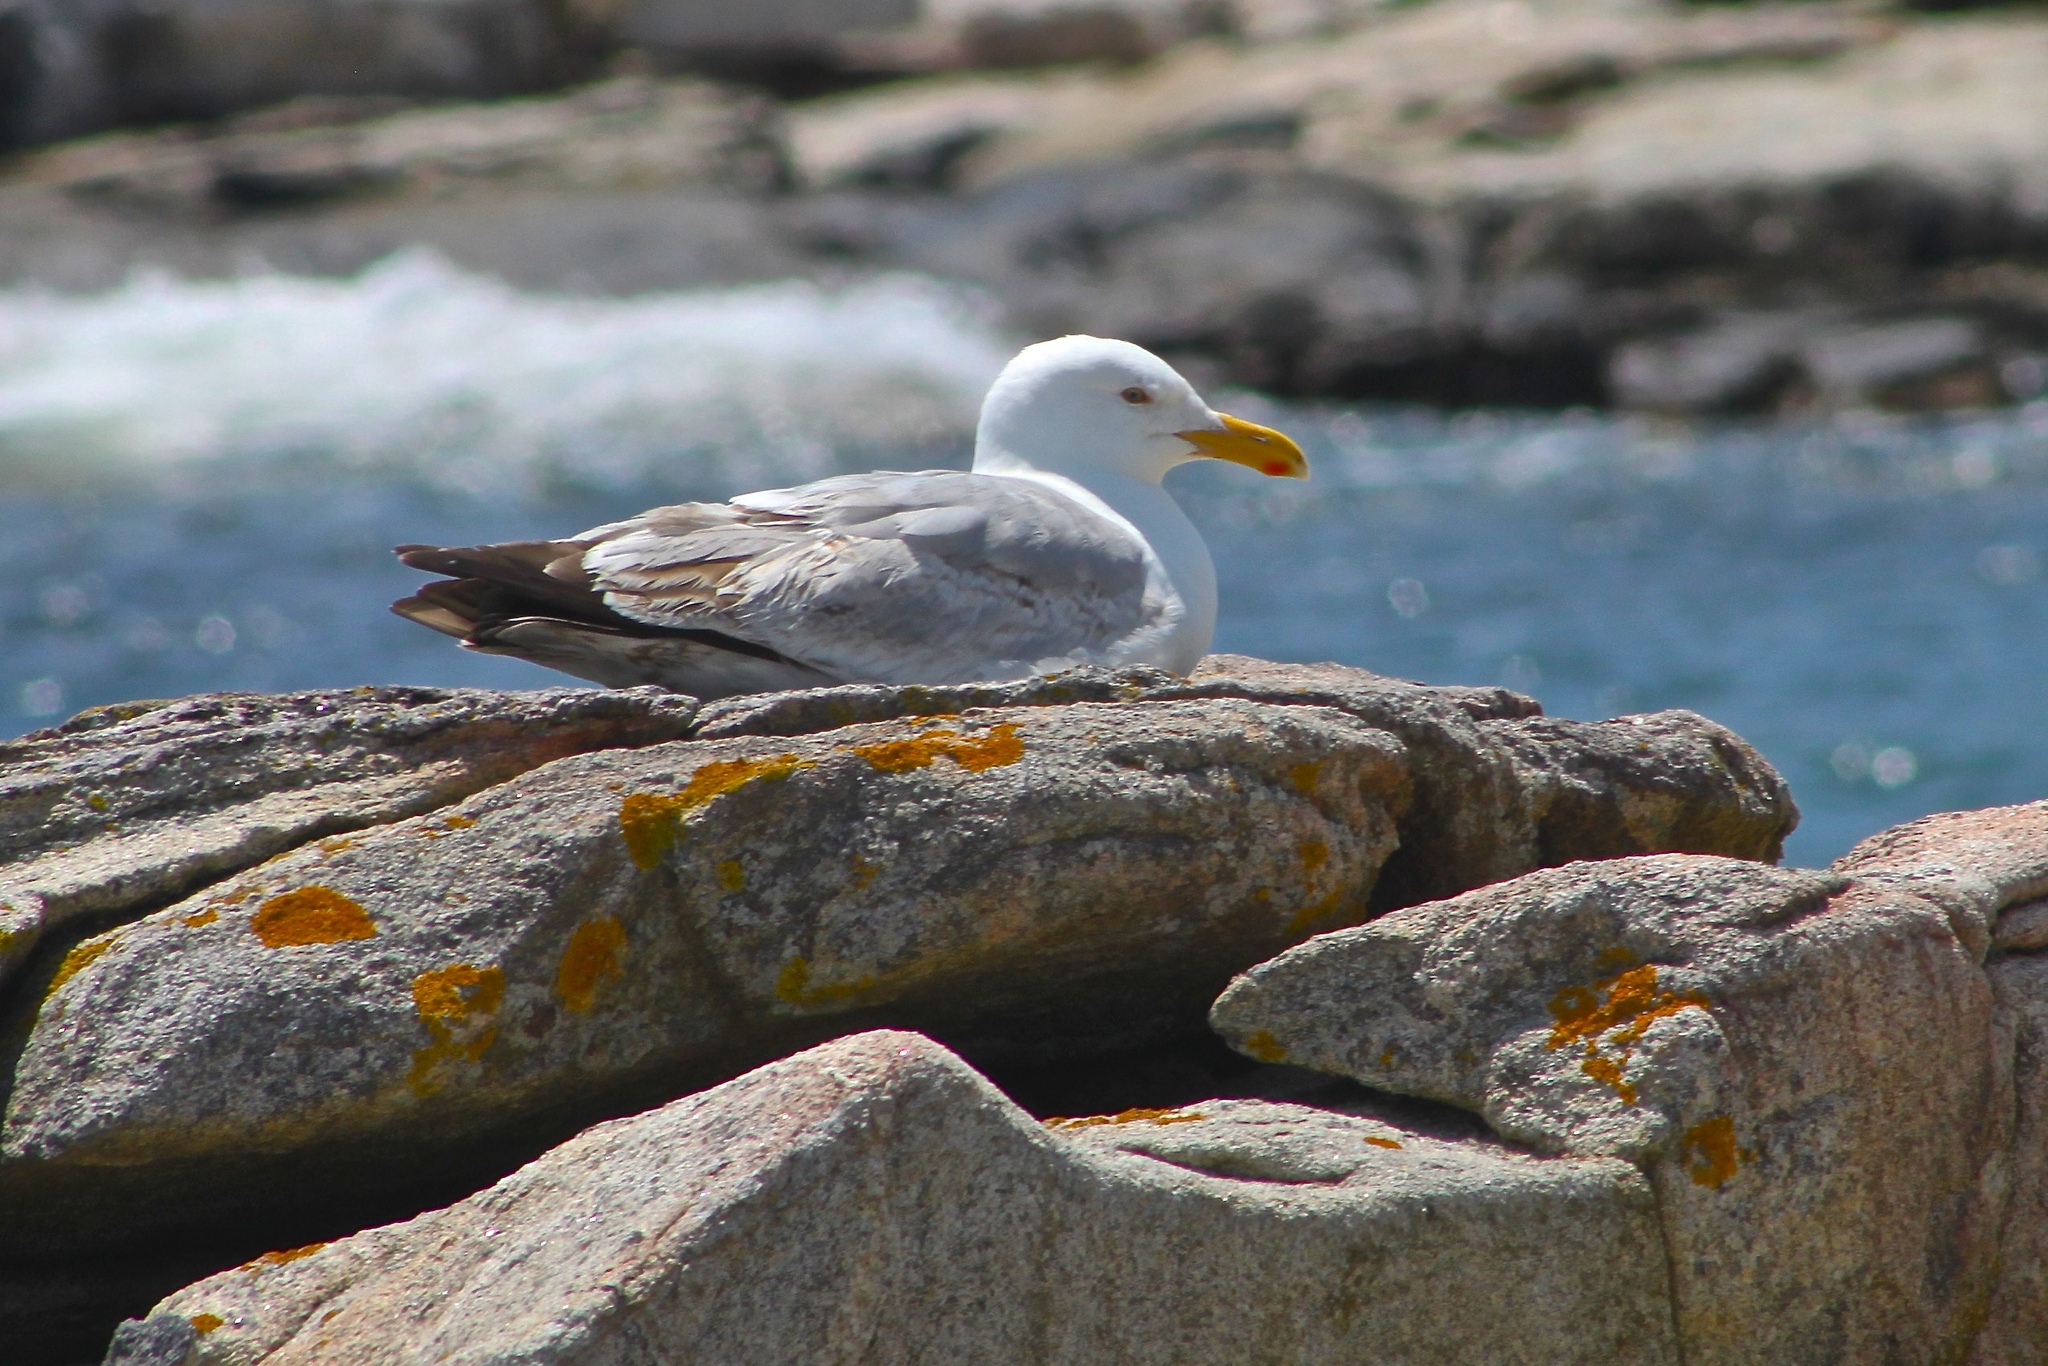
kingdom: Animalia
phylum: Chordata
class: Aves
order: Charadriiformes
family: Laridae
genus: Larus
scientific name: Larus argentatus
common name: Herring gull
